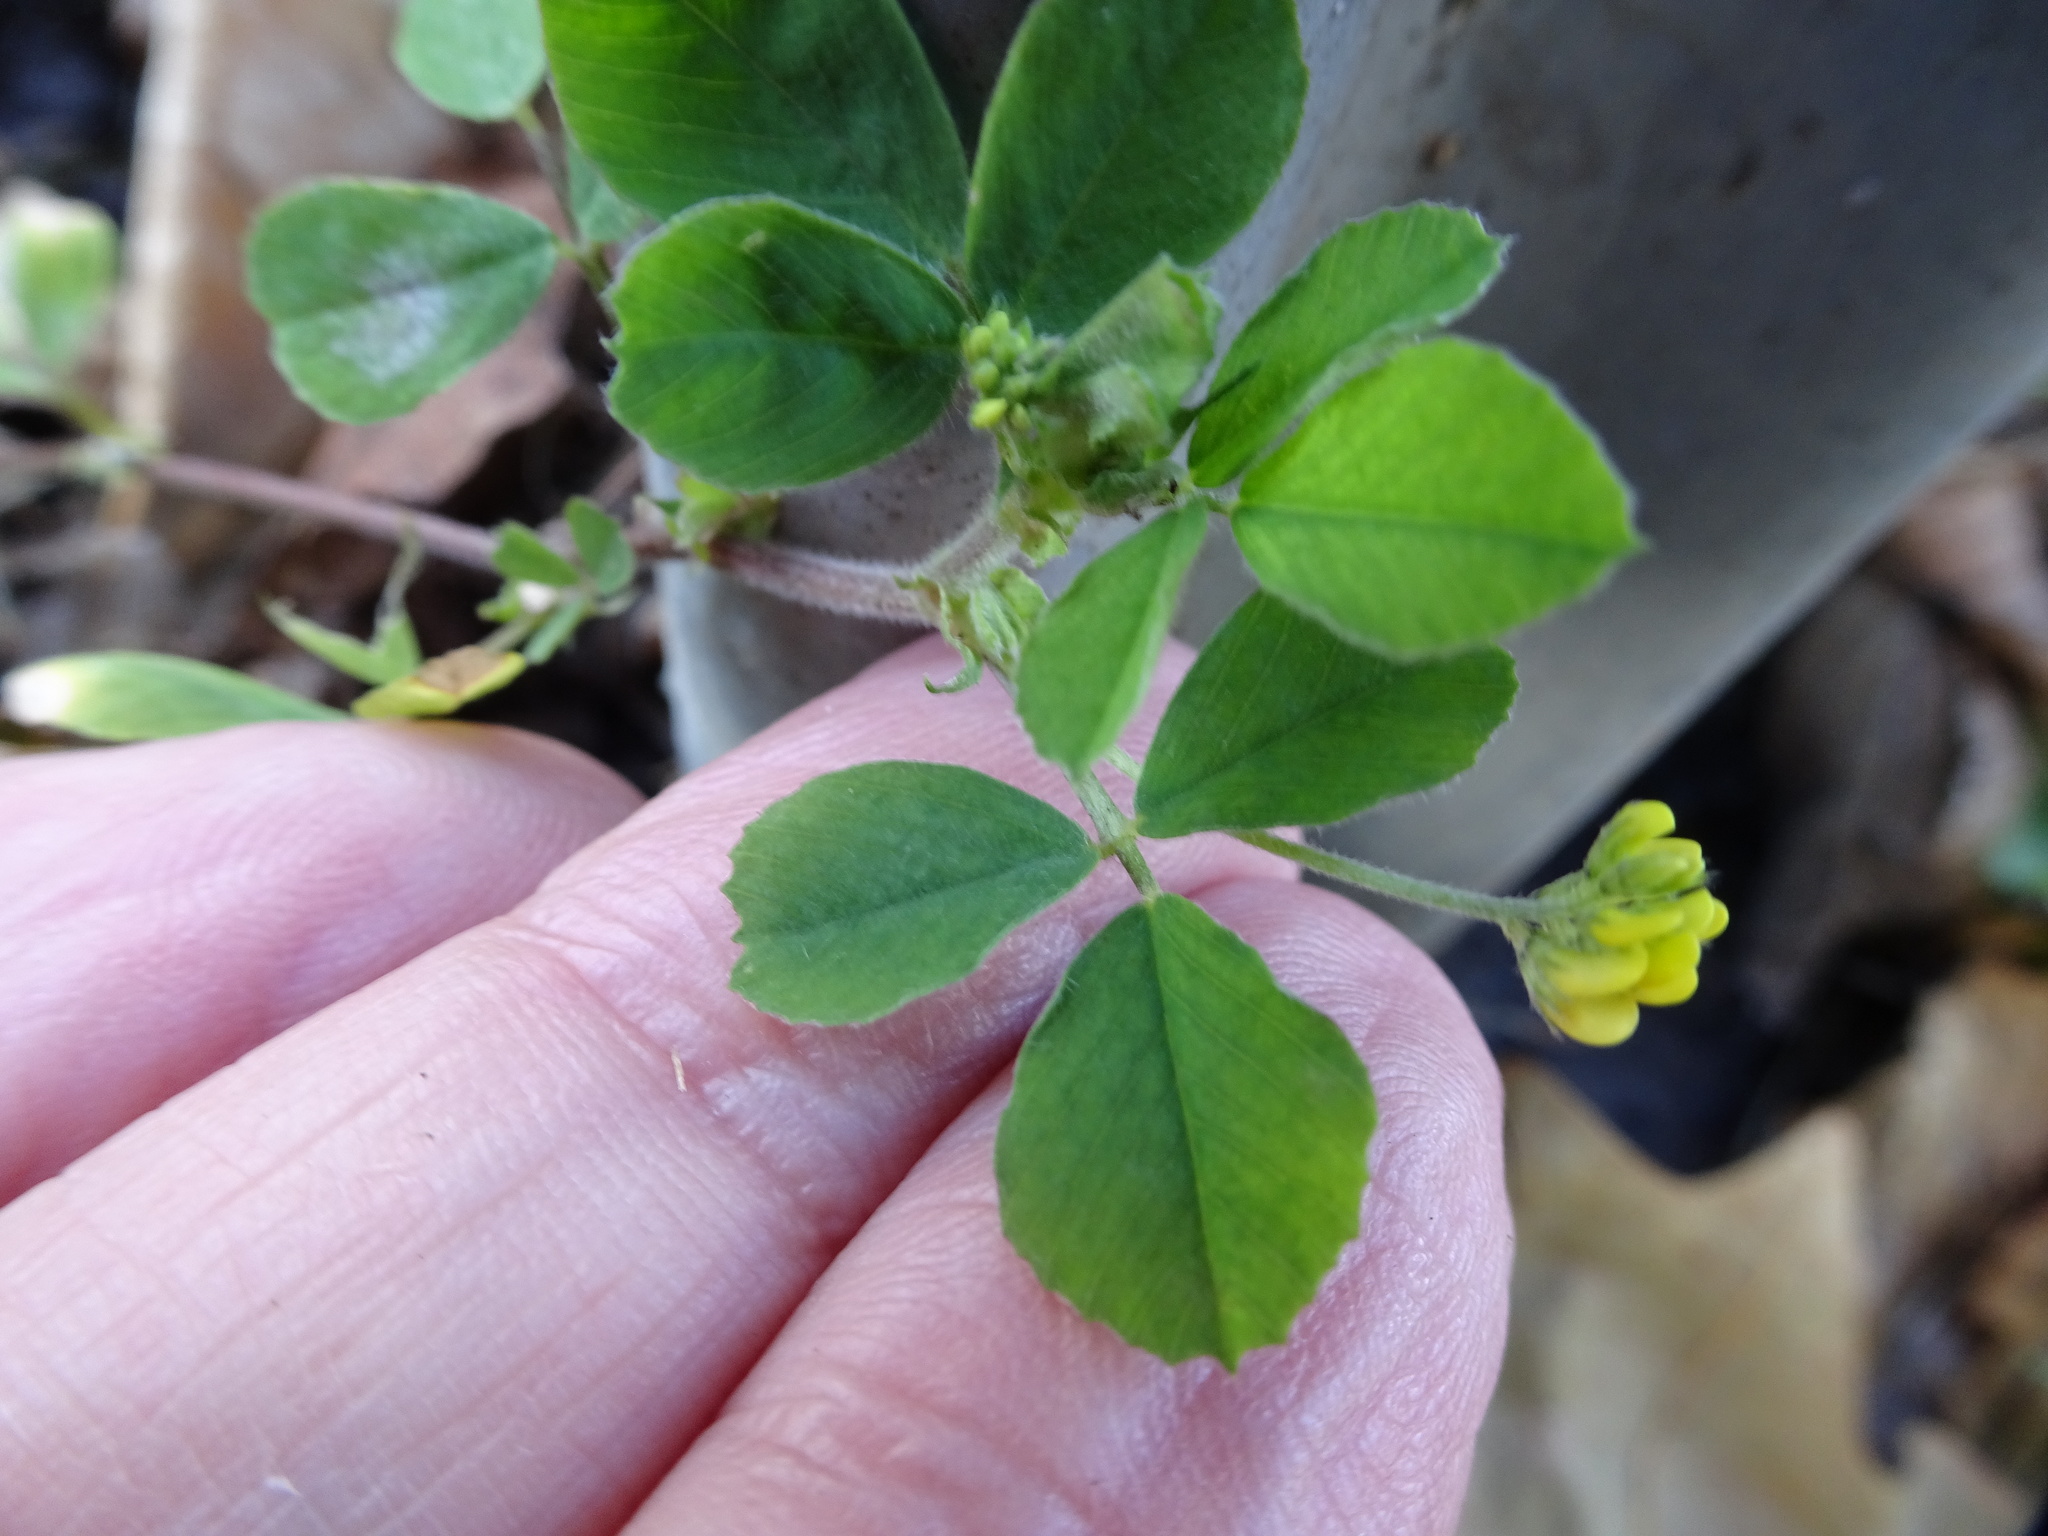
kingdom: Plantae
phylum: Tracheophyta
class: Magnoliopsida
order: Fabales
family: Fabaceae
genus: Medicago
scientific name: Medicago lupulina
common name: Black medick
